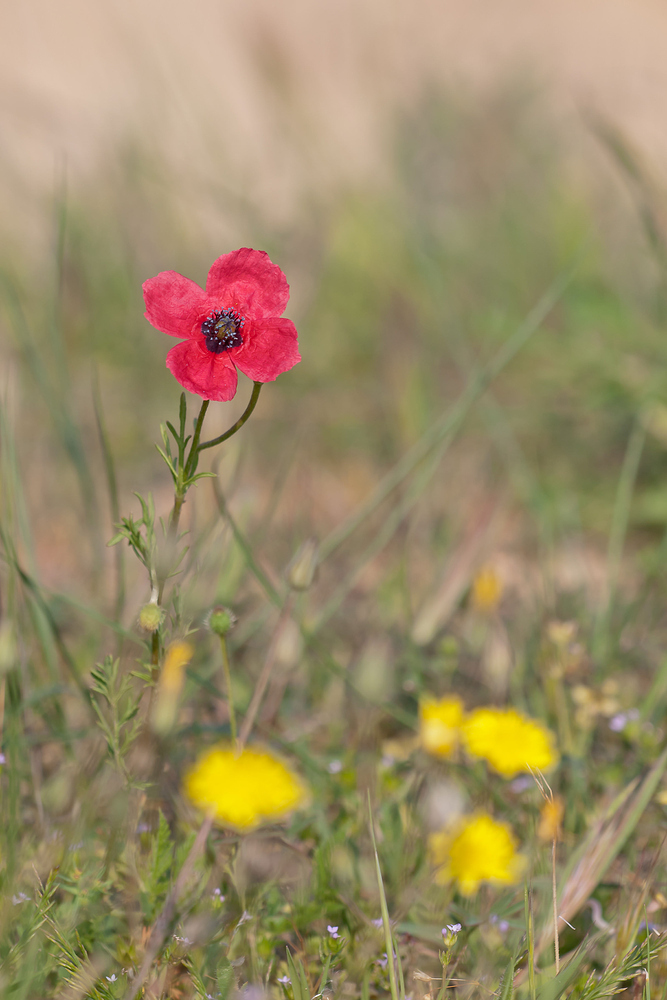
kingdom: Plantae
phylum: Tracheophyta
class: Magnoliopsida
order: Ranunculales
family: Papaveraceae
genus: Roemeria
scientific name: Roemeria hispida
